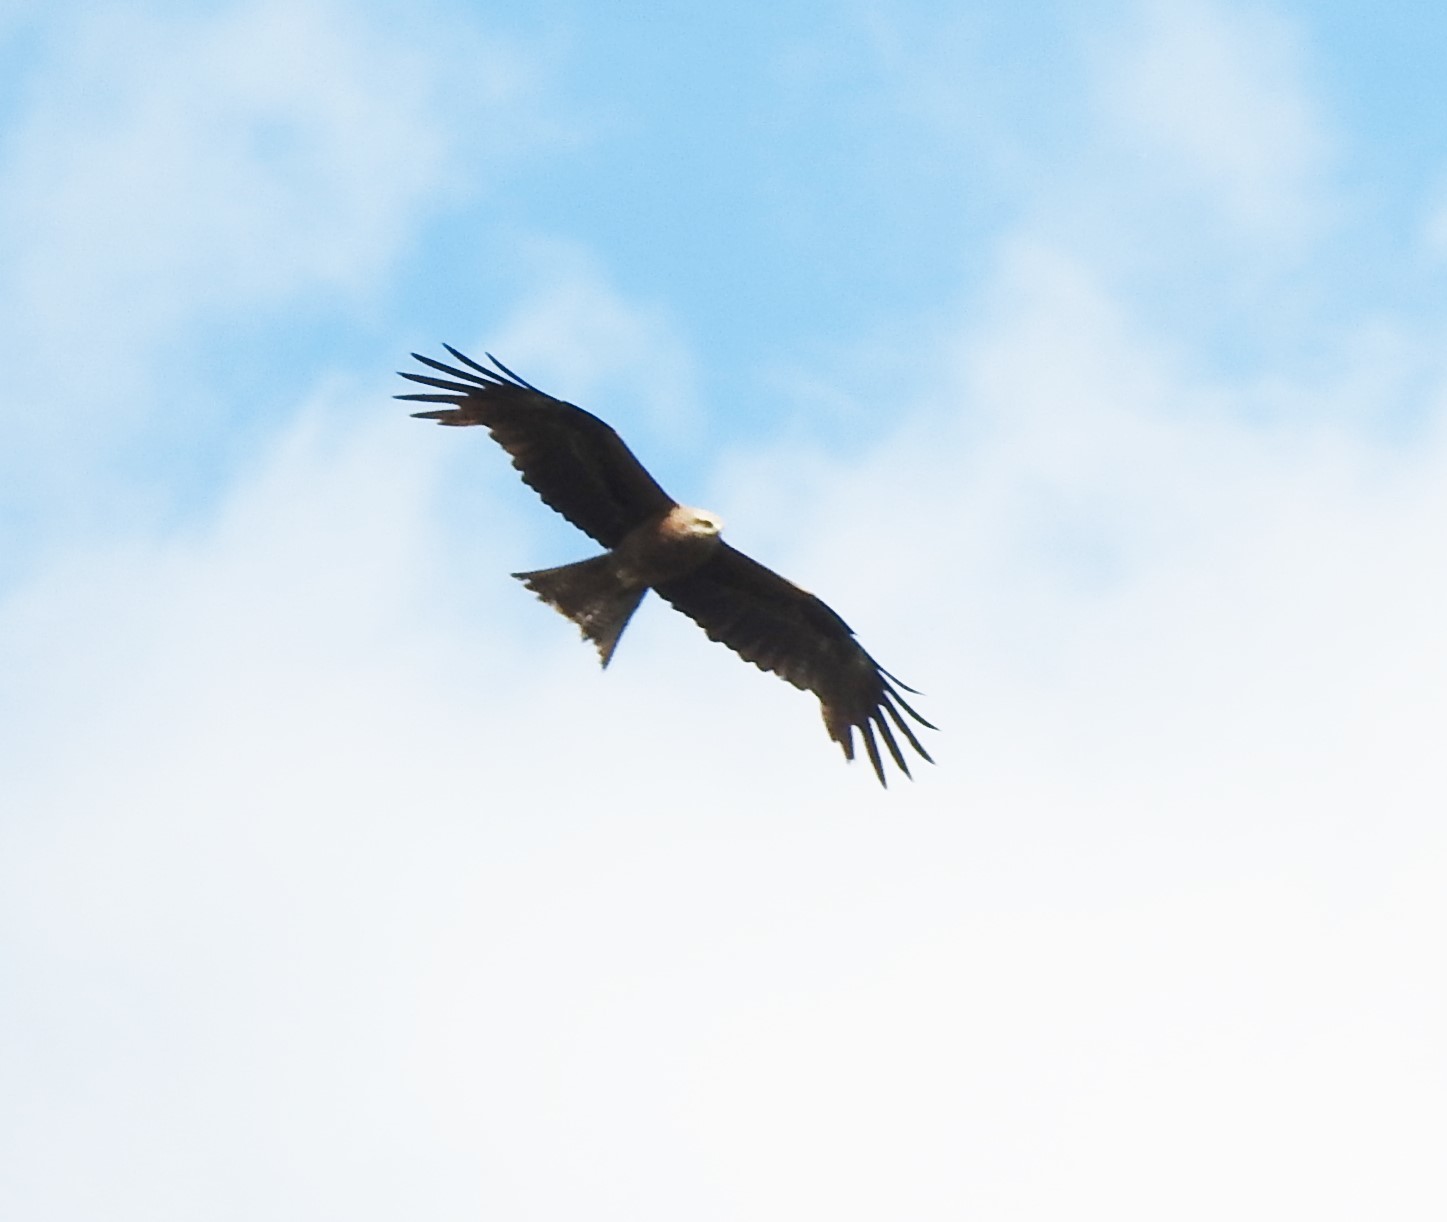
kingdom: Animalia
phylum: Chordata
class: Aves
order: Accipitriformes
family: Accipitridae
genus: Milvus
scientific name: Milvus migrans
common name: Black kite
